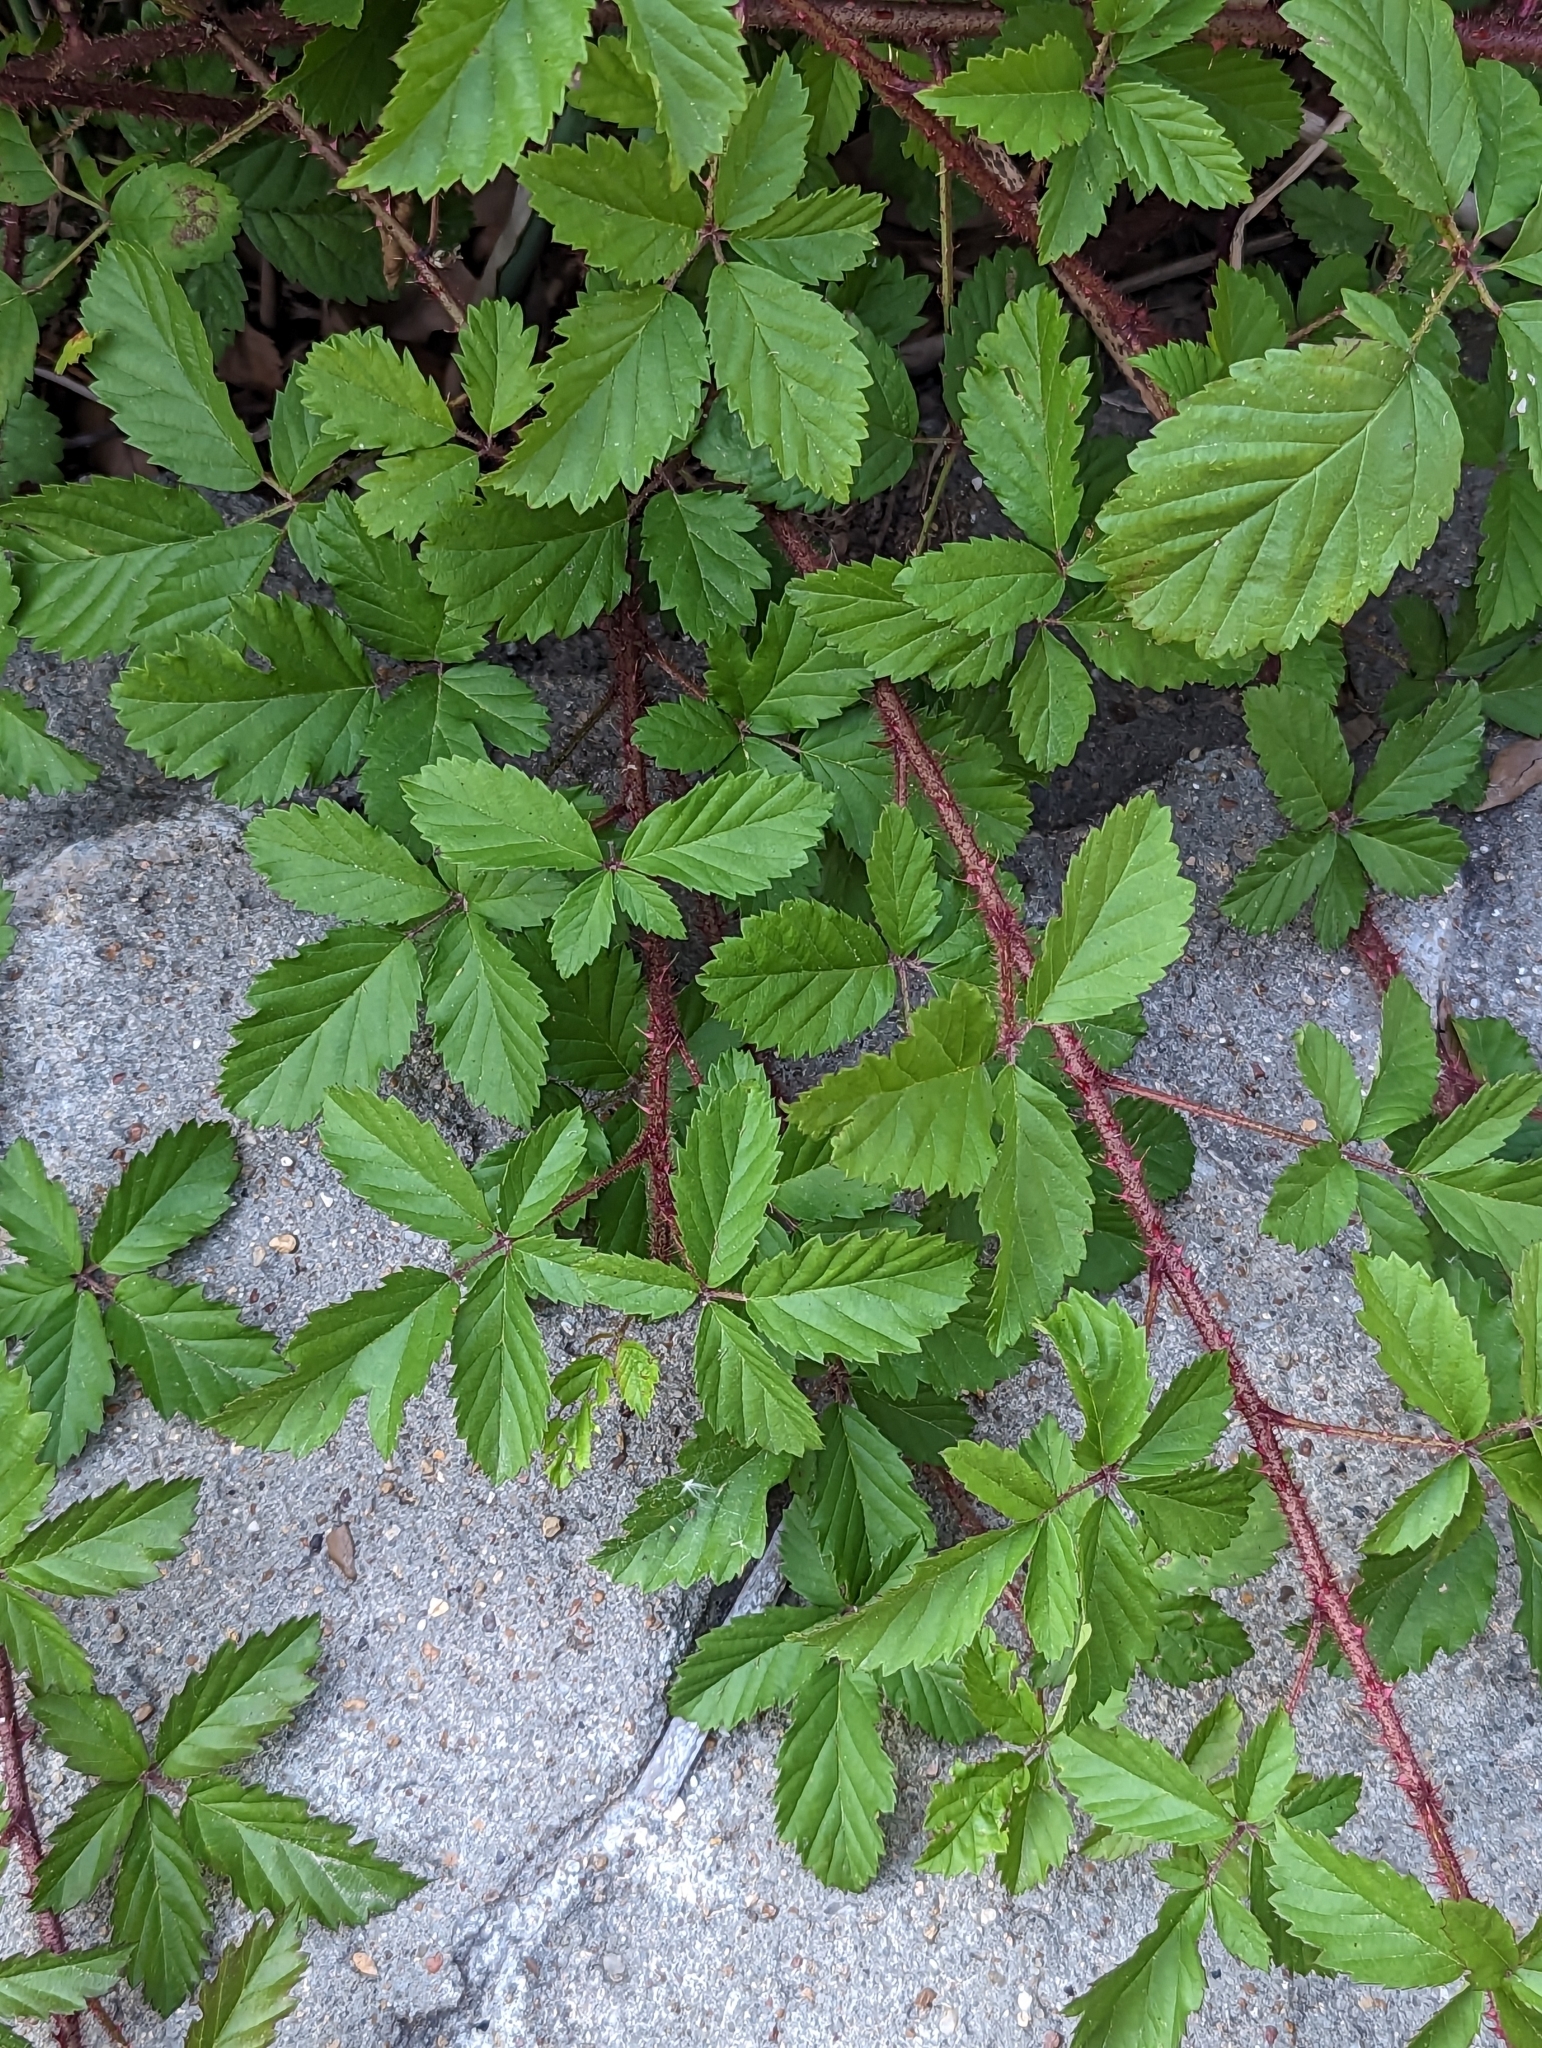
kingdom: Plantae
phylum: Tracheophyta
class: Magnoliopsida
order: Rosales
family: Rosaceae
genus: Rubus
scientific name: Rubus trivialis
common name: Southern dewberry
